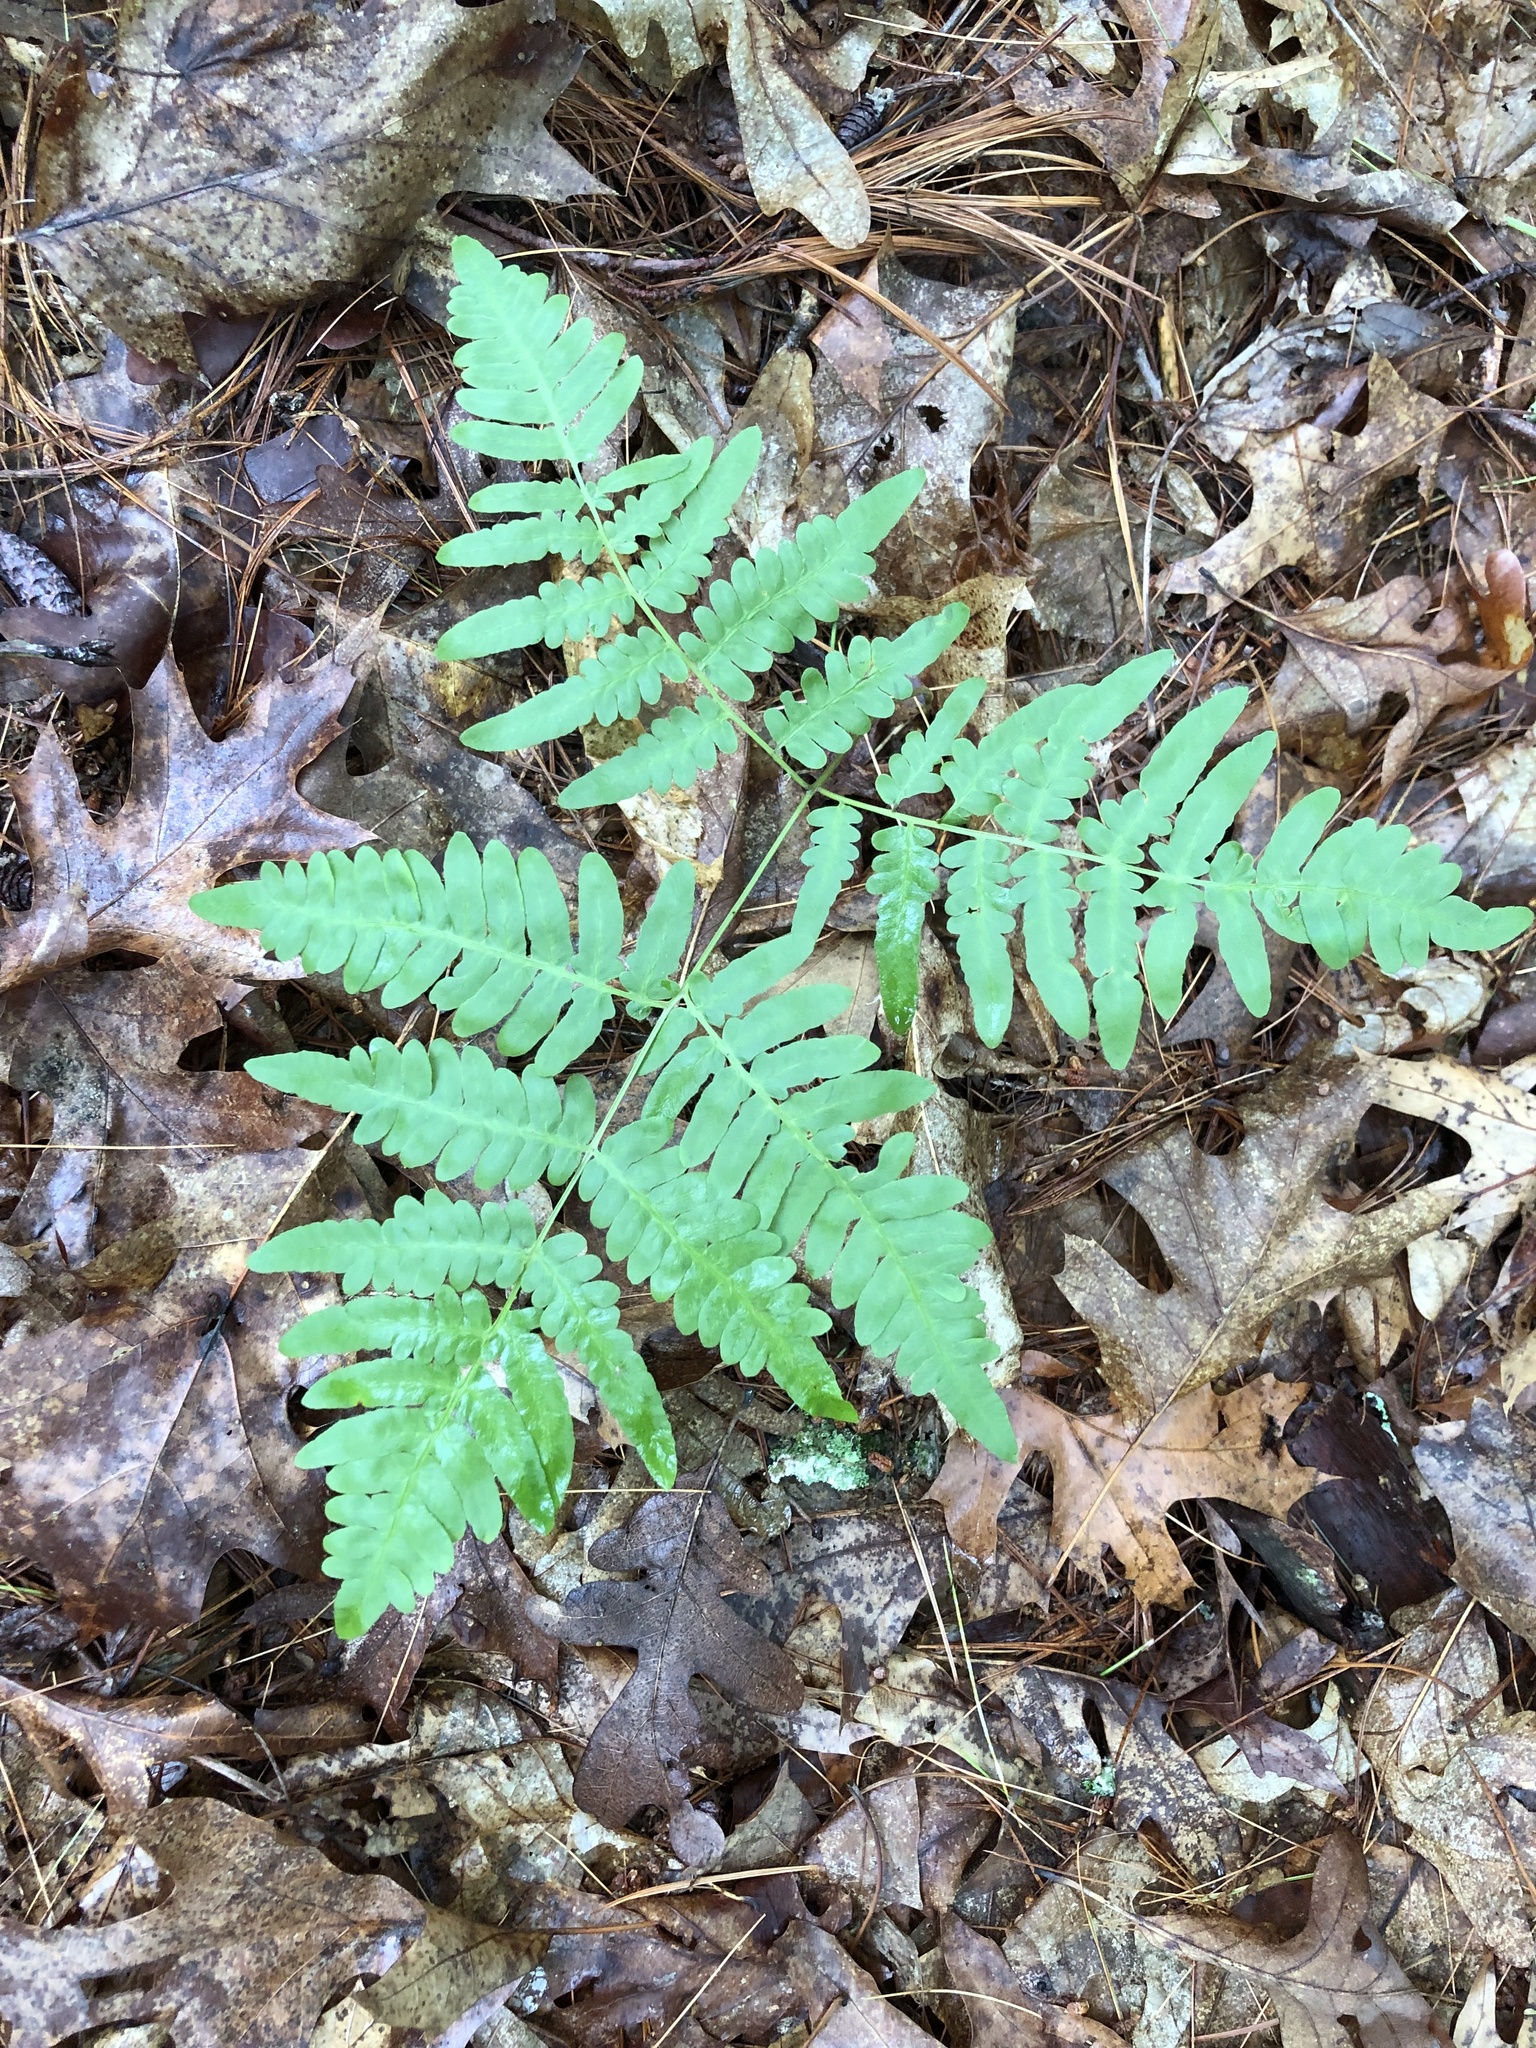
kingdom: Plantae
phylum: Tracheophyta
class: Polypodiopsida
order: Polypodiales
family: Dennstaedtiaceae
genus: Pteridium
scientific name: Pteridium aquilinum
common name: Bracken
